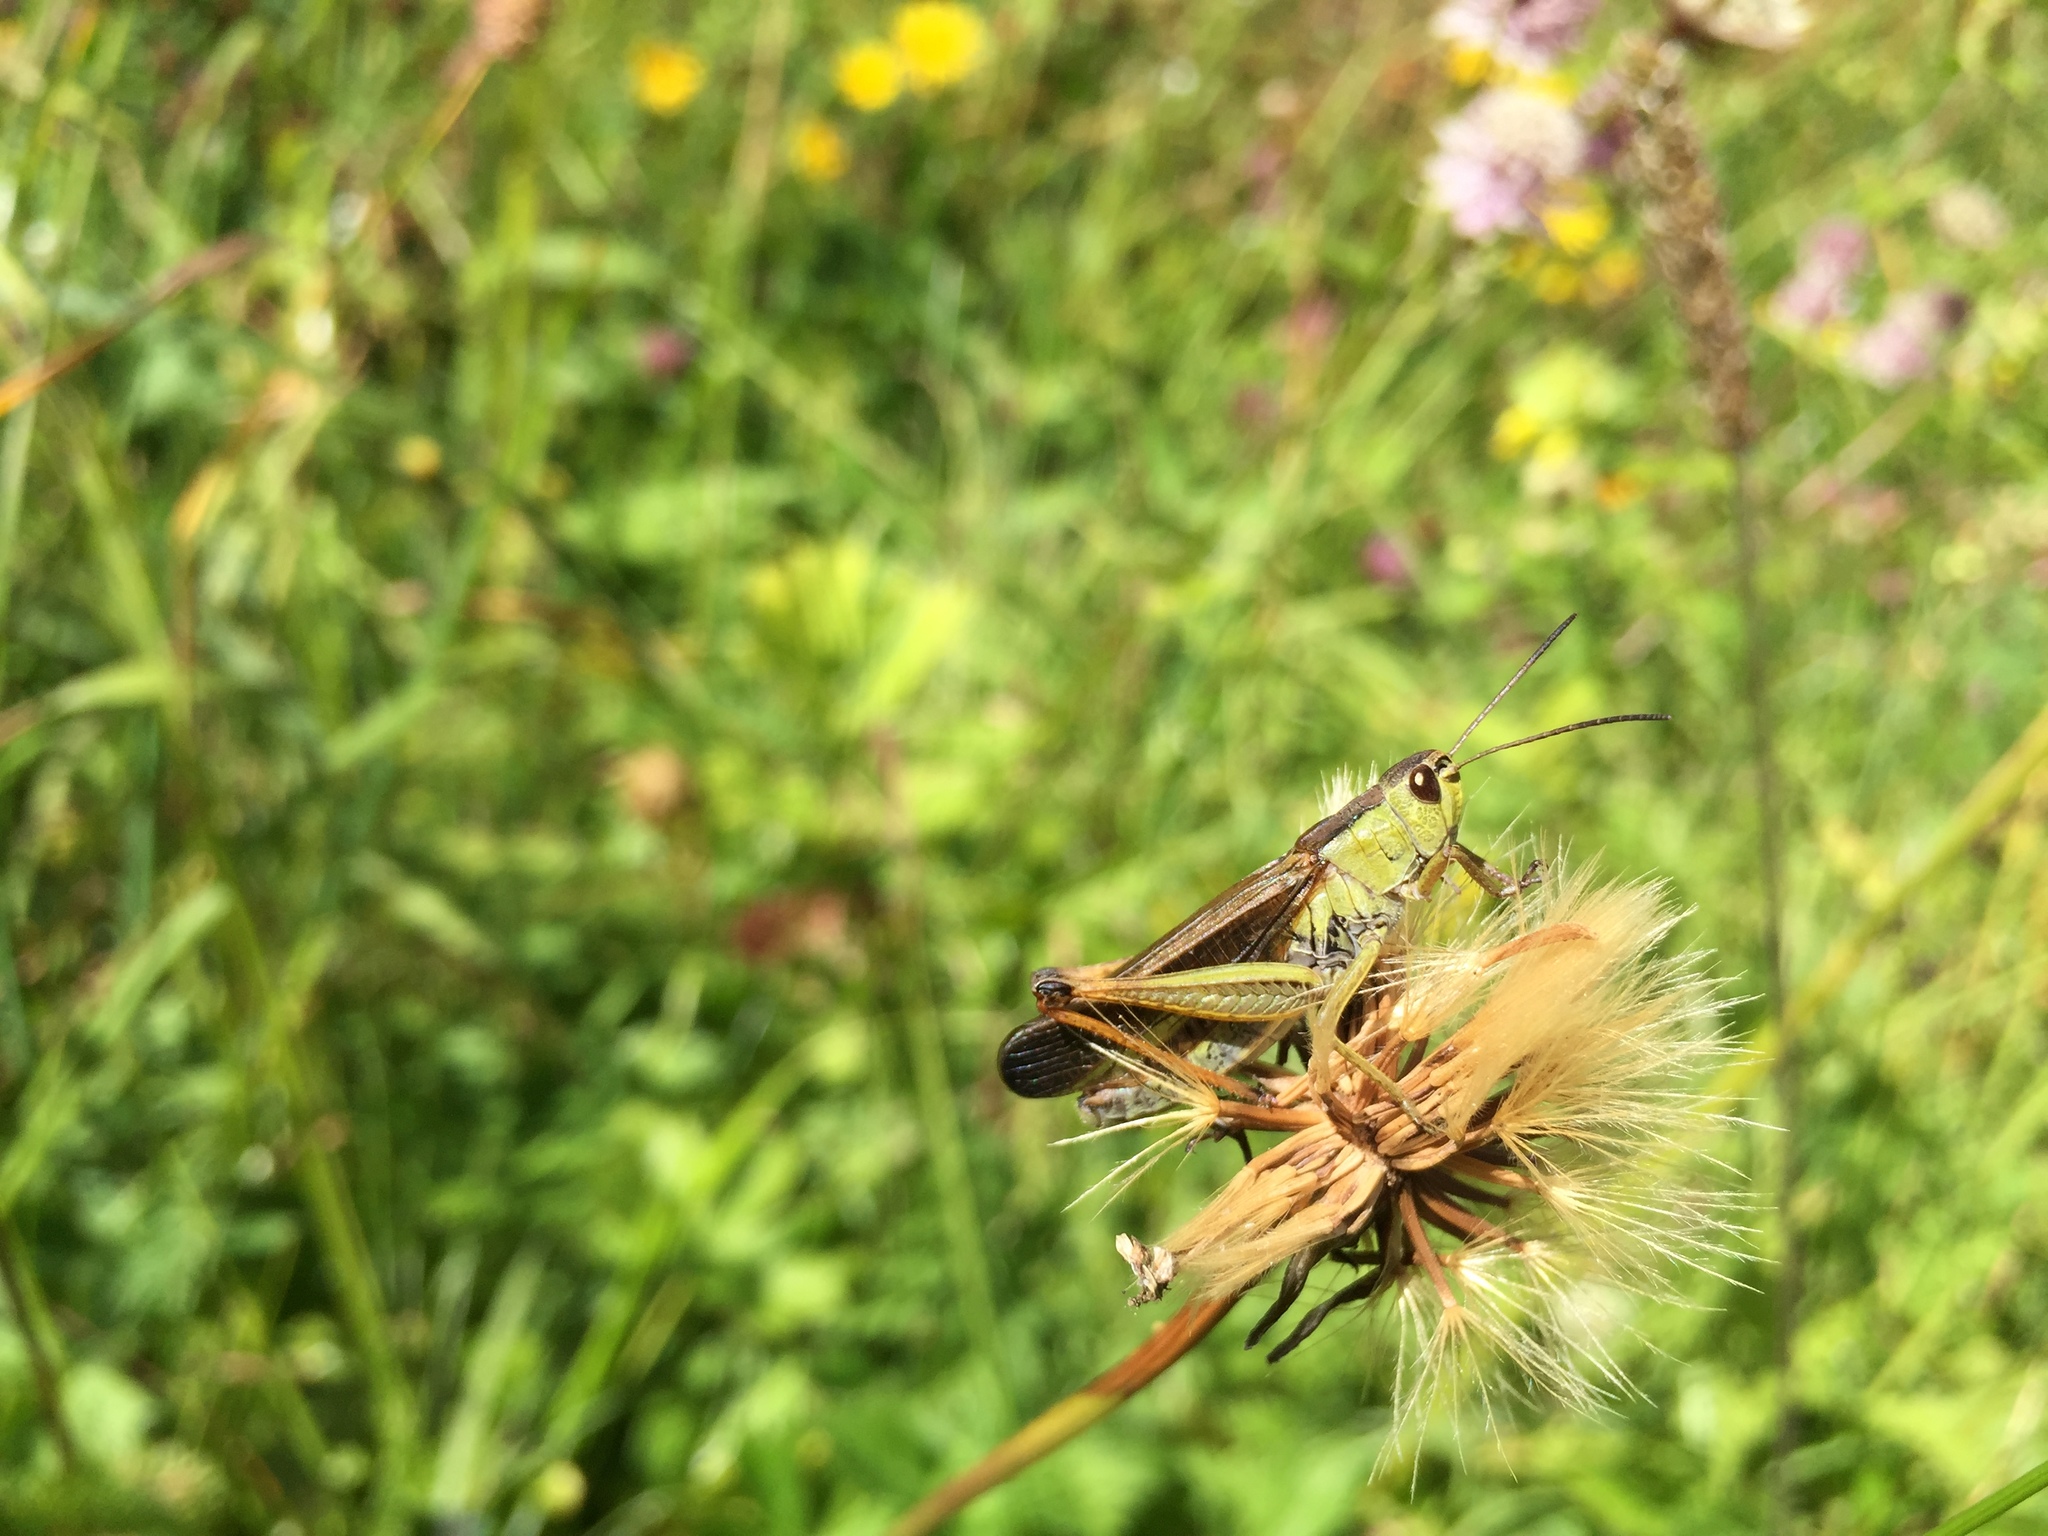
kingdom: Animalia
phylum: Arthropoda
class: Insecta
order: Orthoptera
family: Acrididae
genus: Stauroderus
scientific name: Stauroderus scalaris
